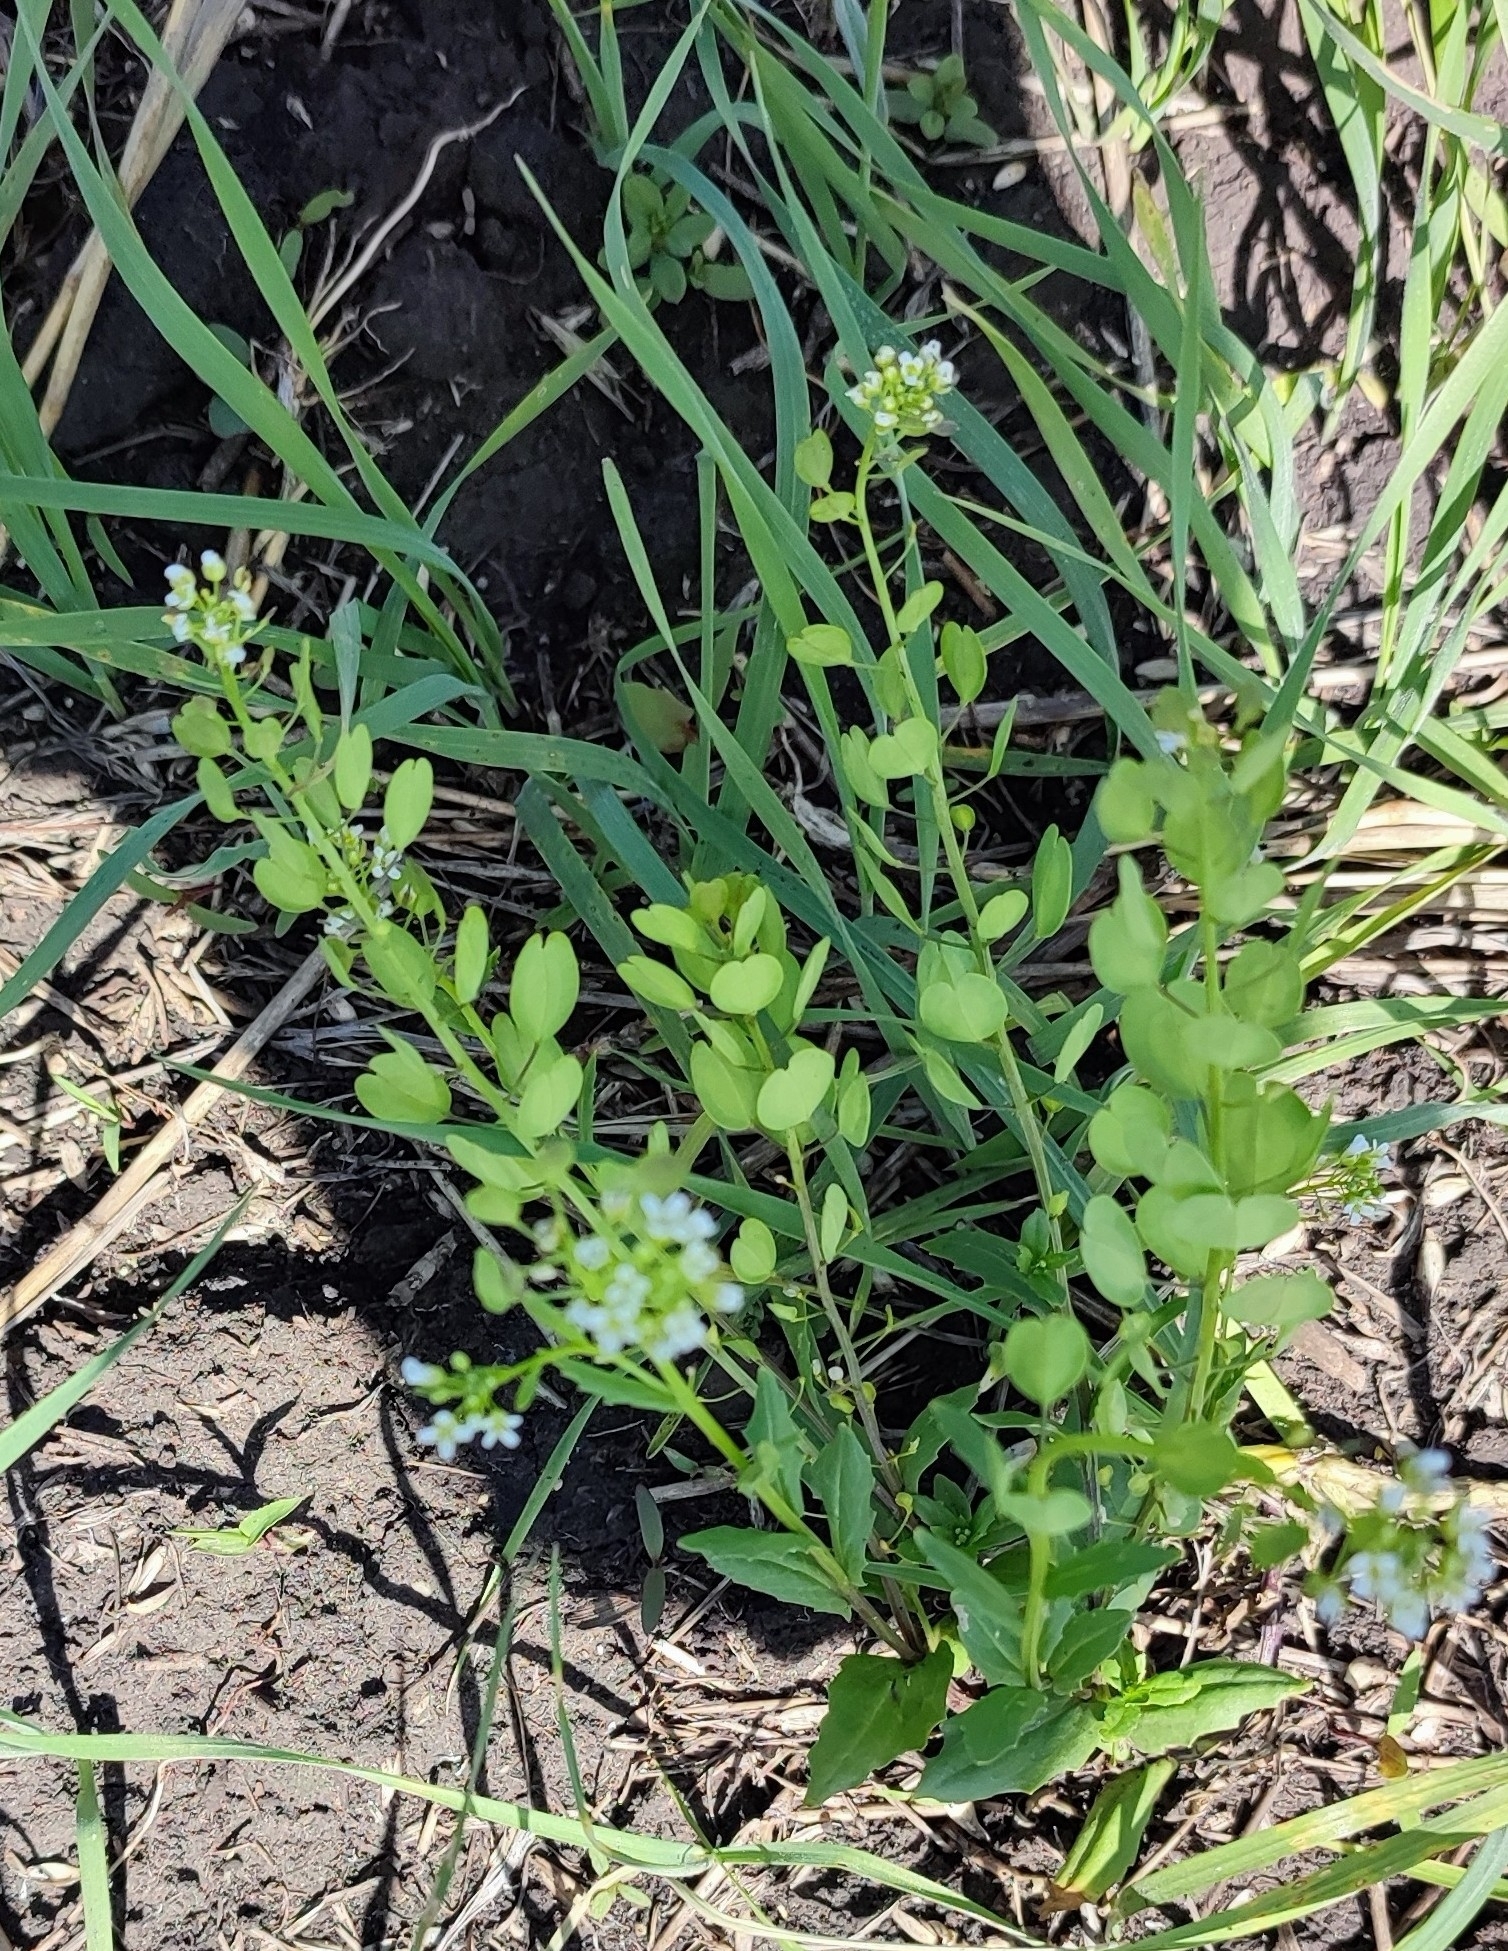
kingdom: Plantae
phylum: Tracheophyta
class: Magnoliopsida
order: Brassicales
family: Brassicaceae
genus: Thlaspi
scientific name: Thlaspi arvense
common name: Field pennycress
